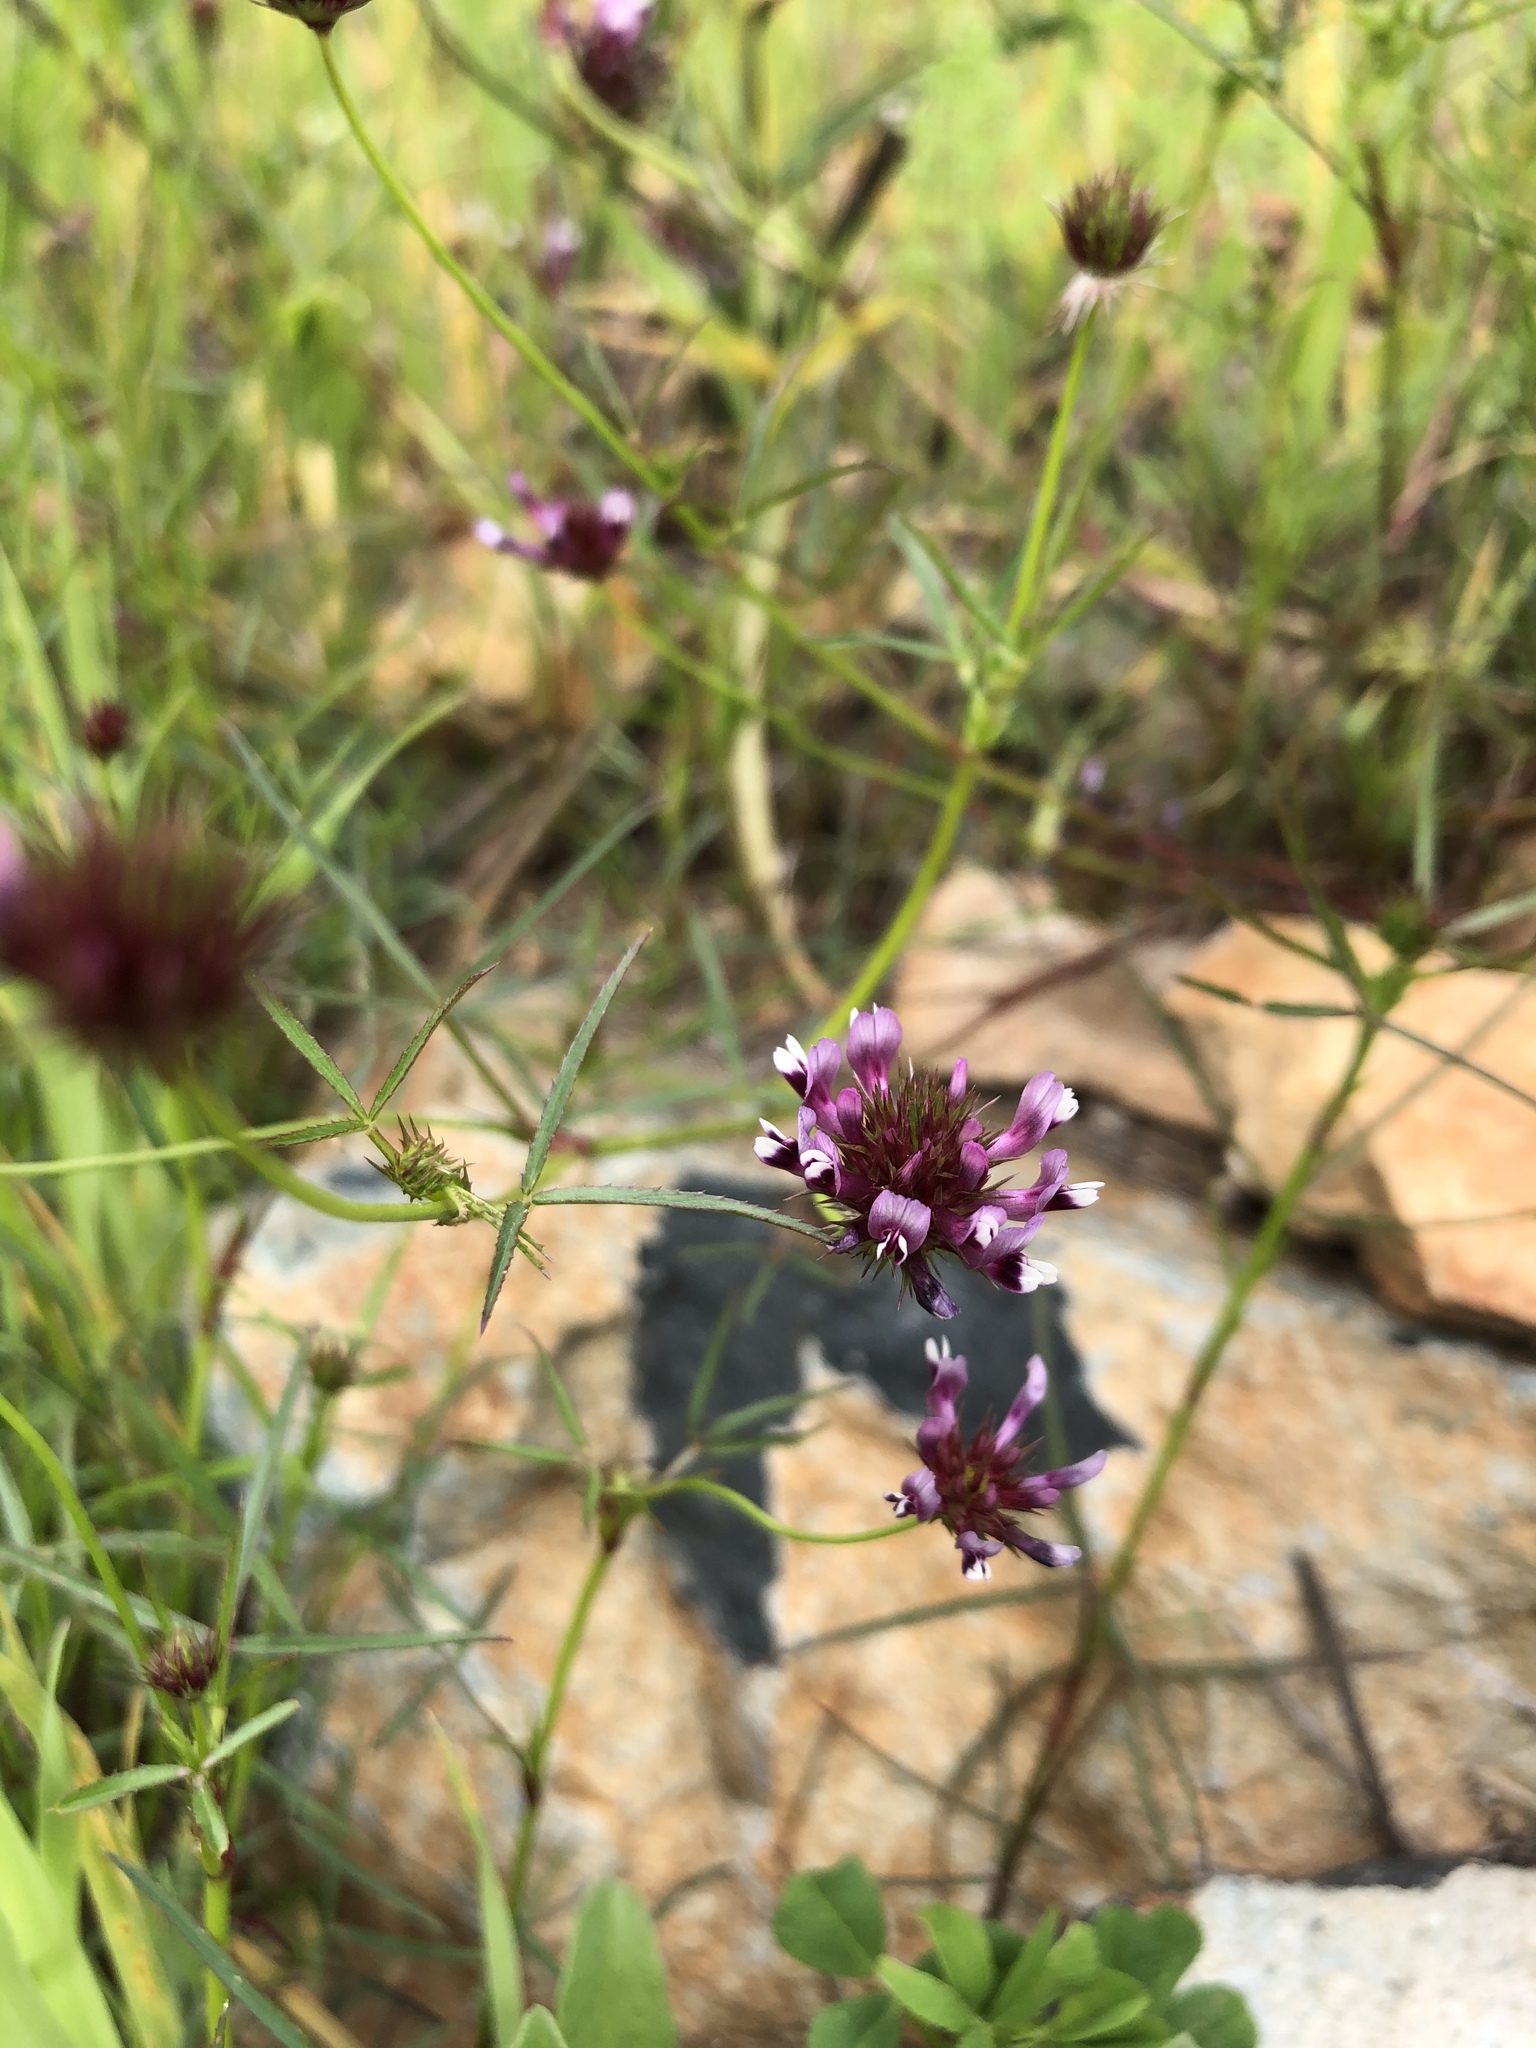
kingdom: Plantae
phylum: Tracheophyta
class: Magnoliopsida
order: Fabales
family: Fabaceae
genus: Trifolium
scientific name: Trifolium willdenovii
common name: Tomcat clover
